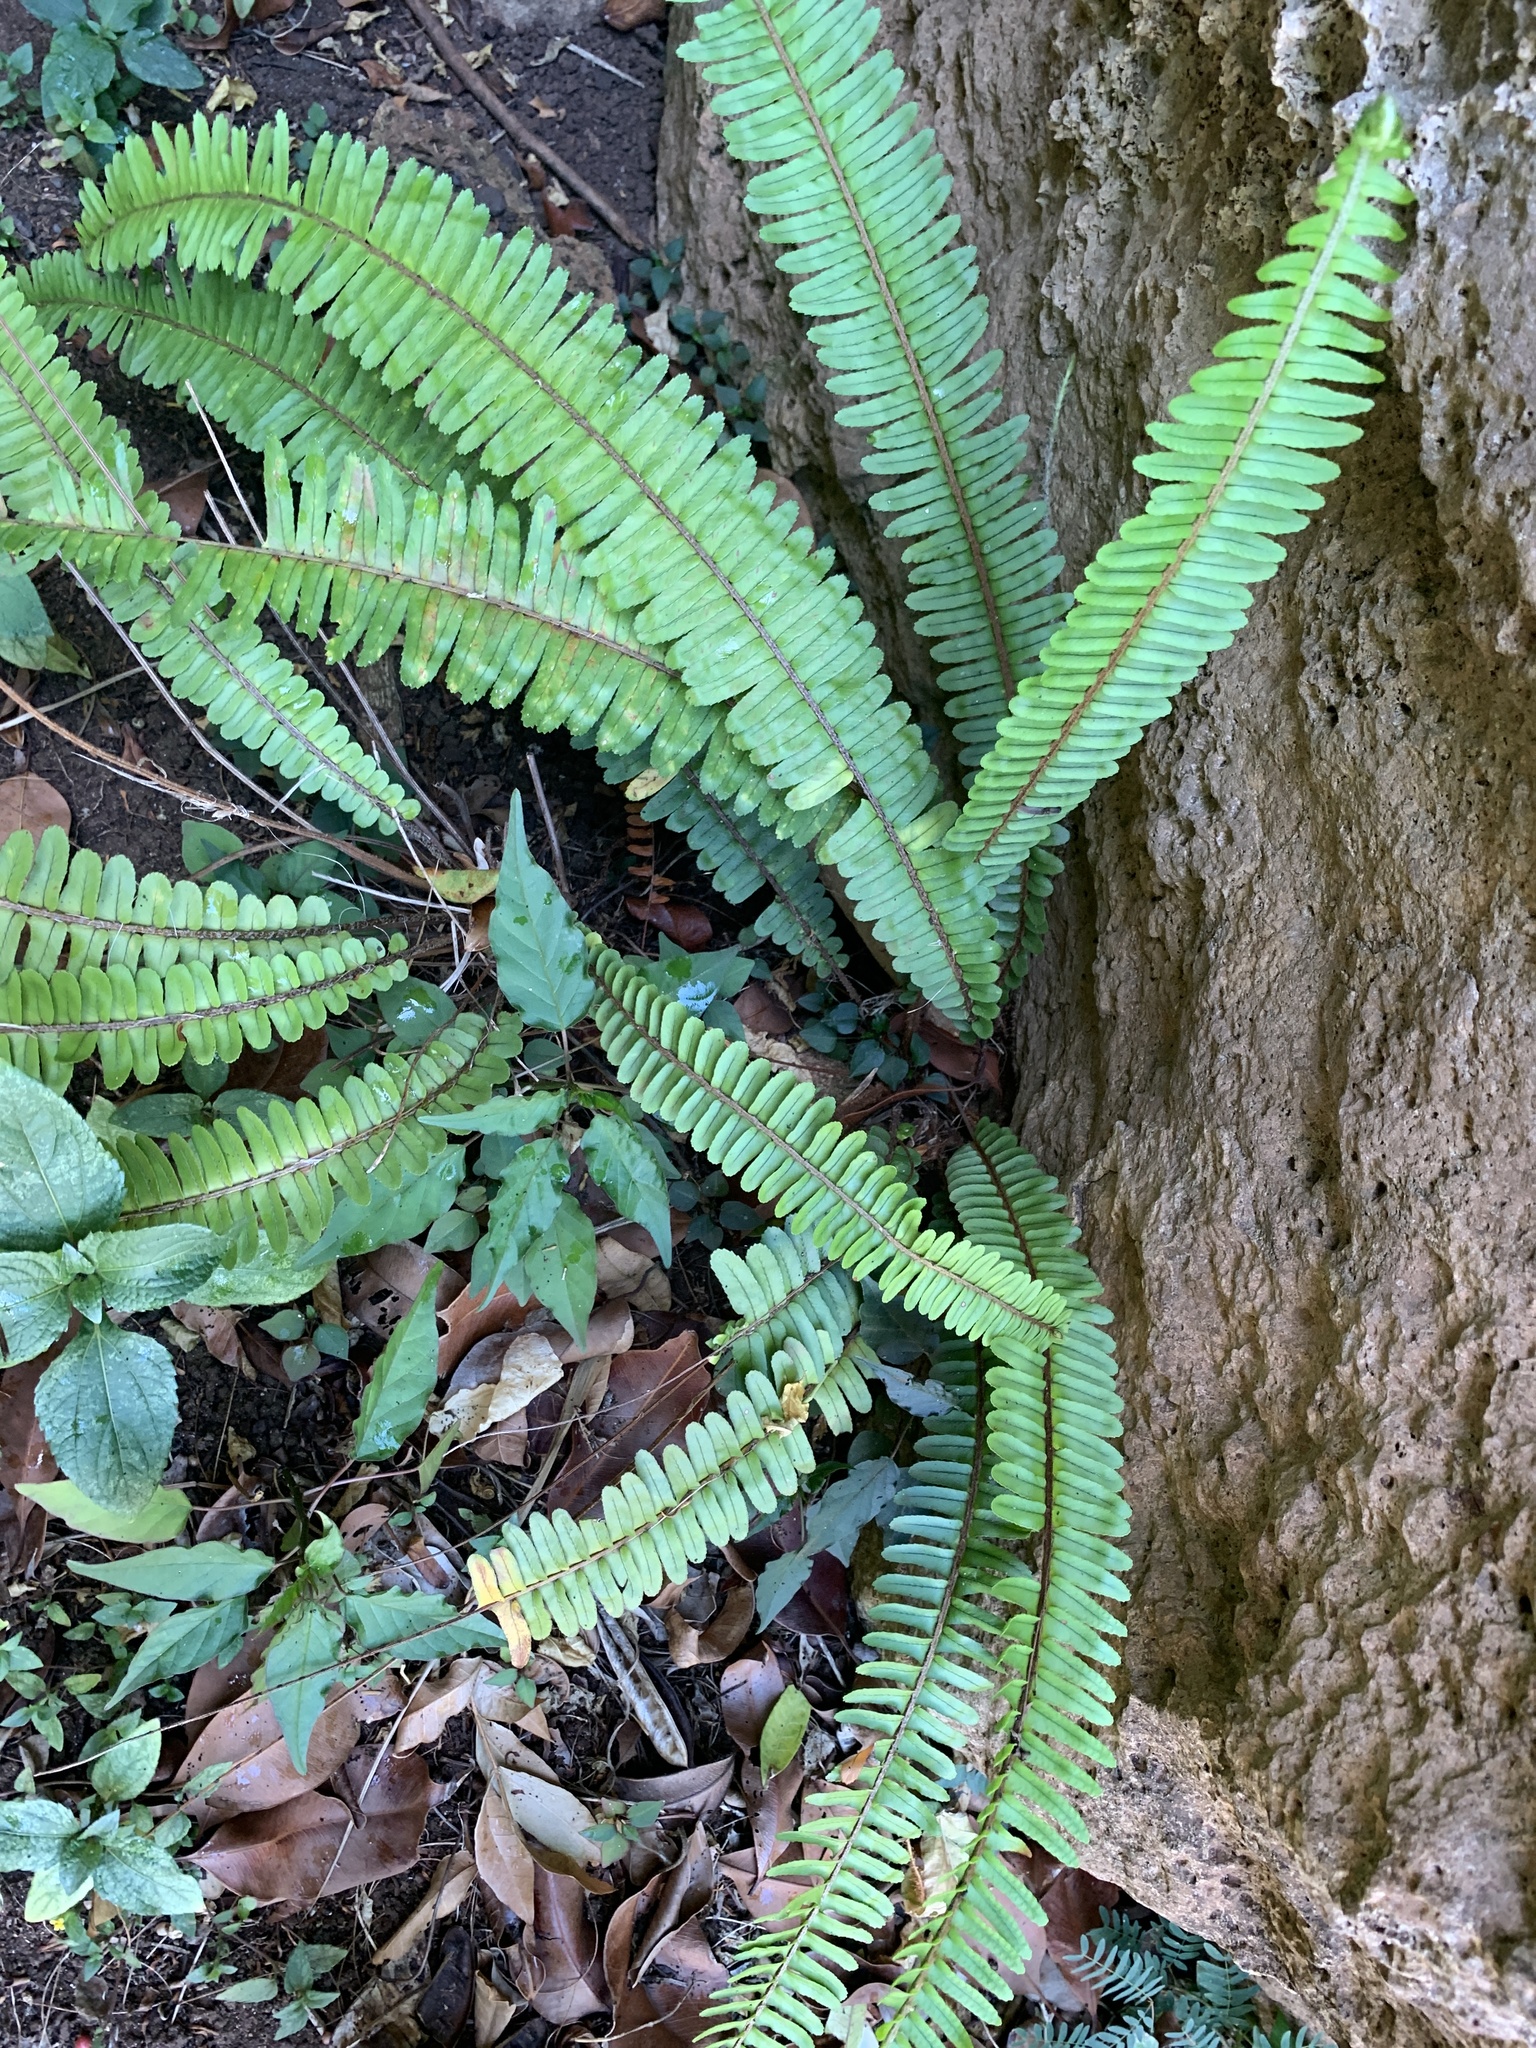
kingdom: Plantae
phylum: Tracheophyta
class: Polypodiopsida
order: Polypodiales
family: Nephrolepidaceae
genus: Nephrolepis
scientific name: Nephrolepis cordifolia
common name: Narrow swordfern
